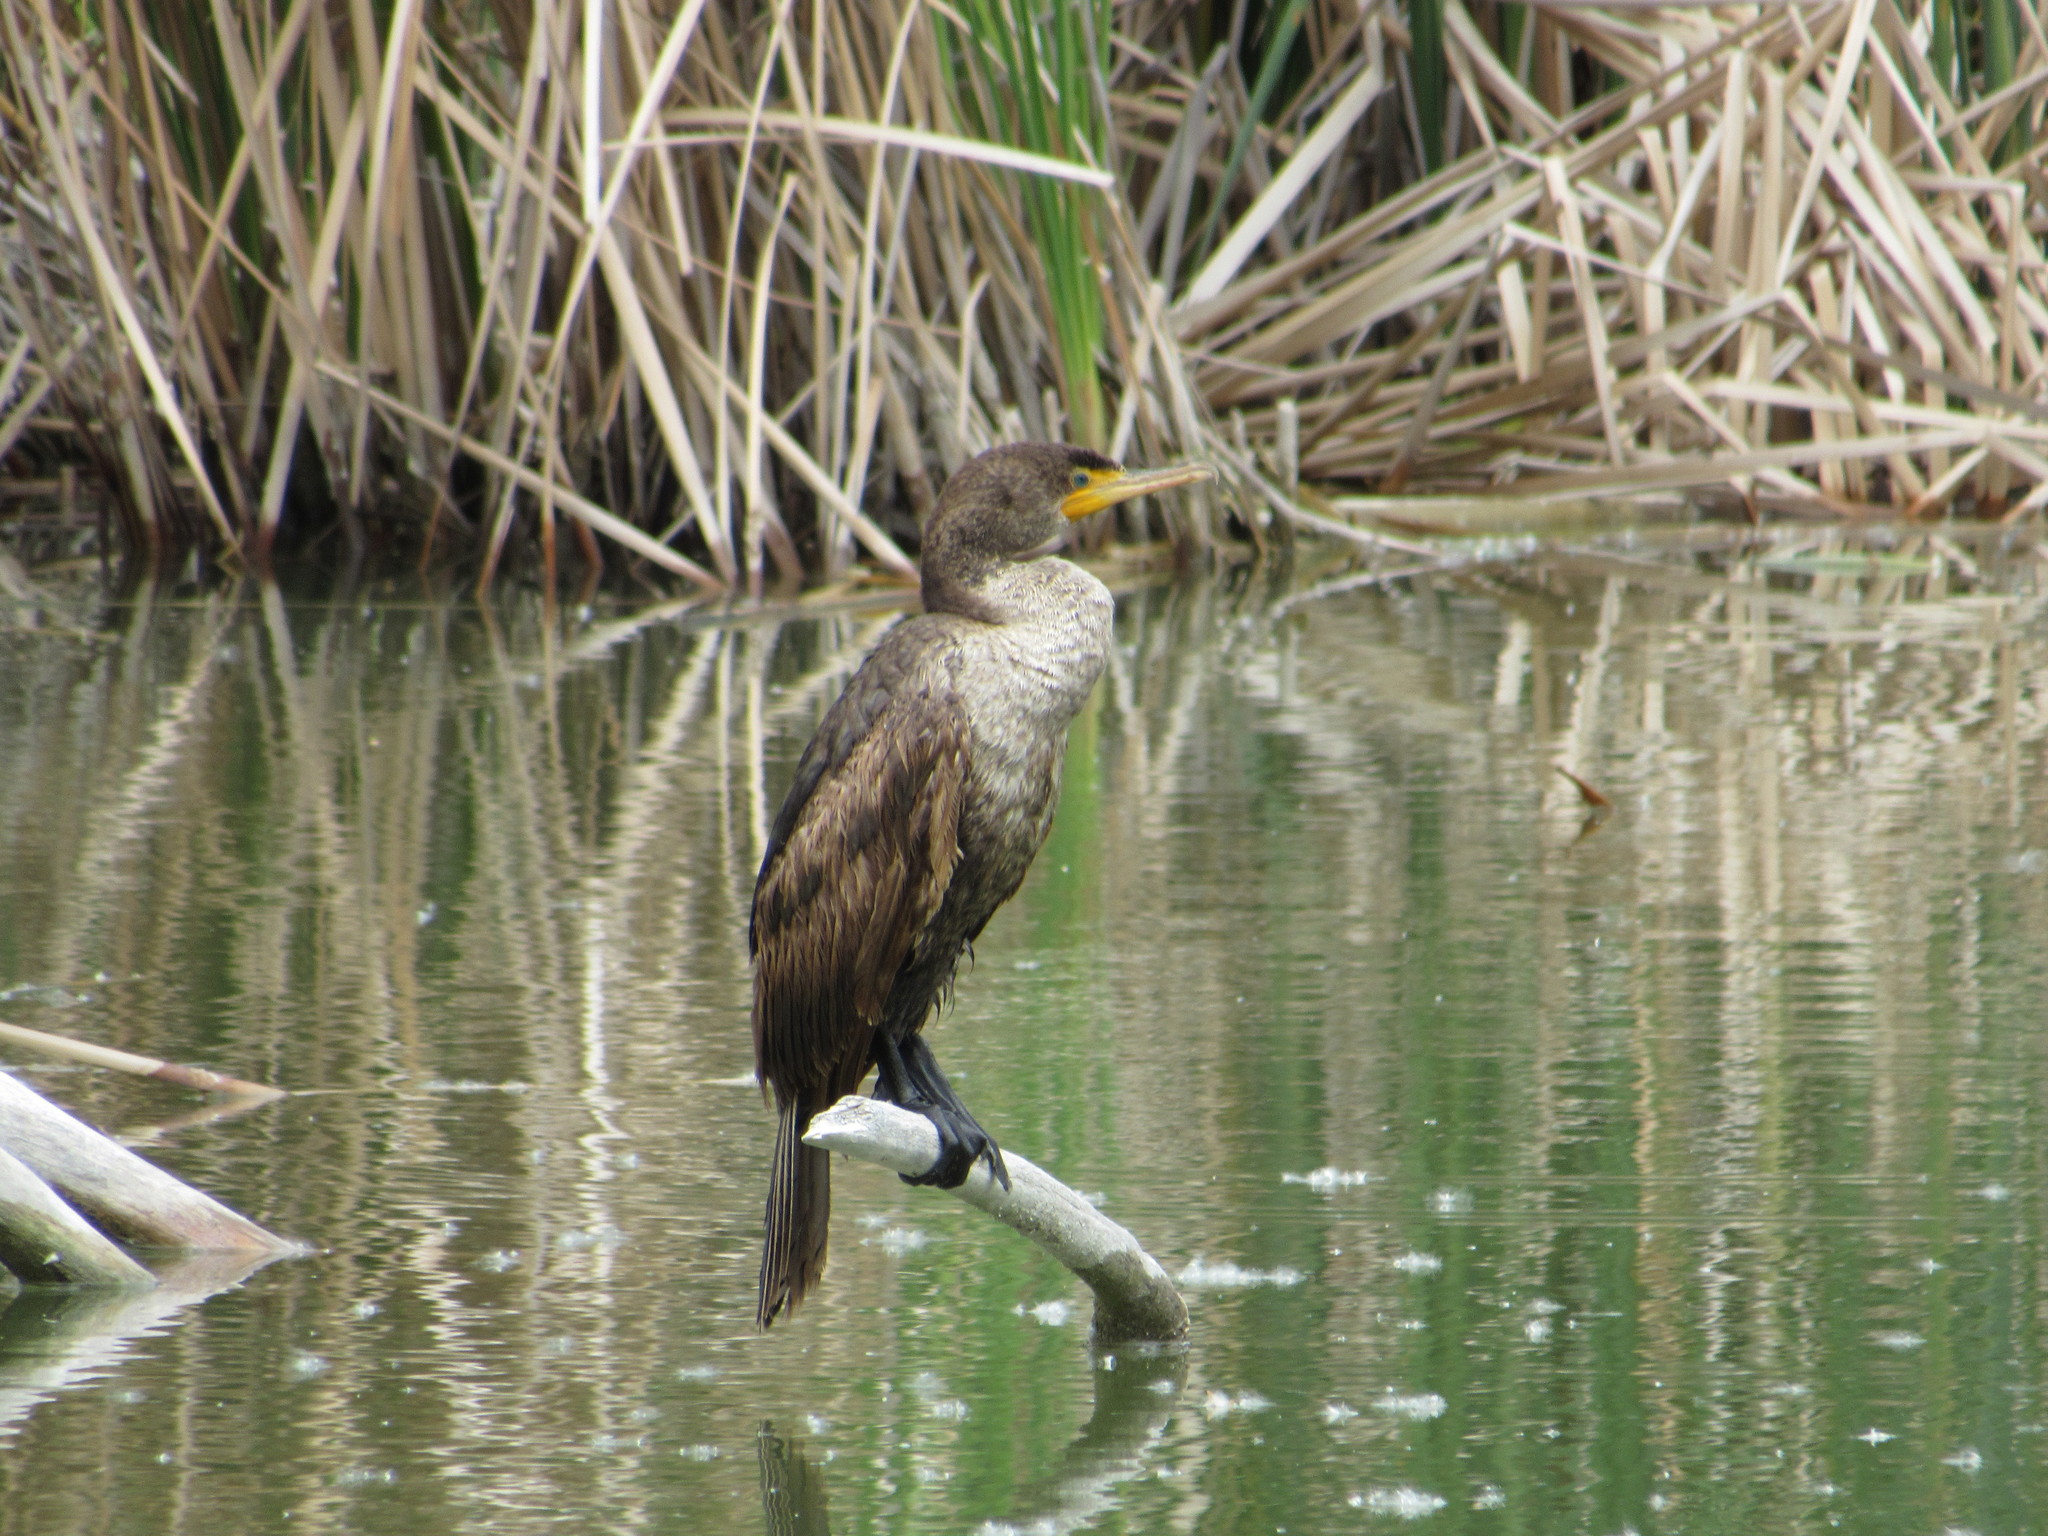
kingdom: Animalia
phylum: Chordata
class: Aves
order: Suliformes
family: Phalacrocoracidae
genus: Phalacrocorax
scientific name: Phalacrocorax auritus
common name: Double-crested cormorant
